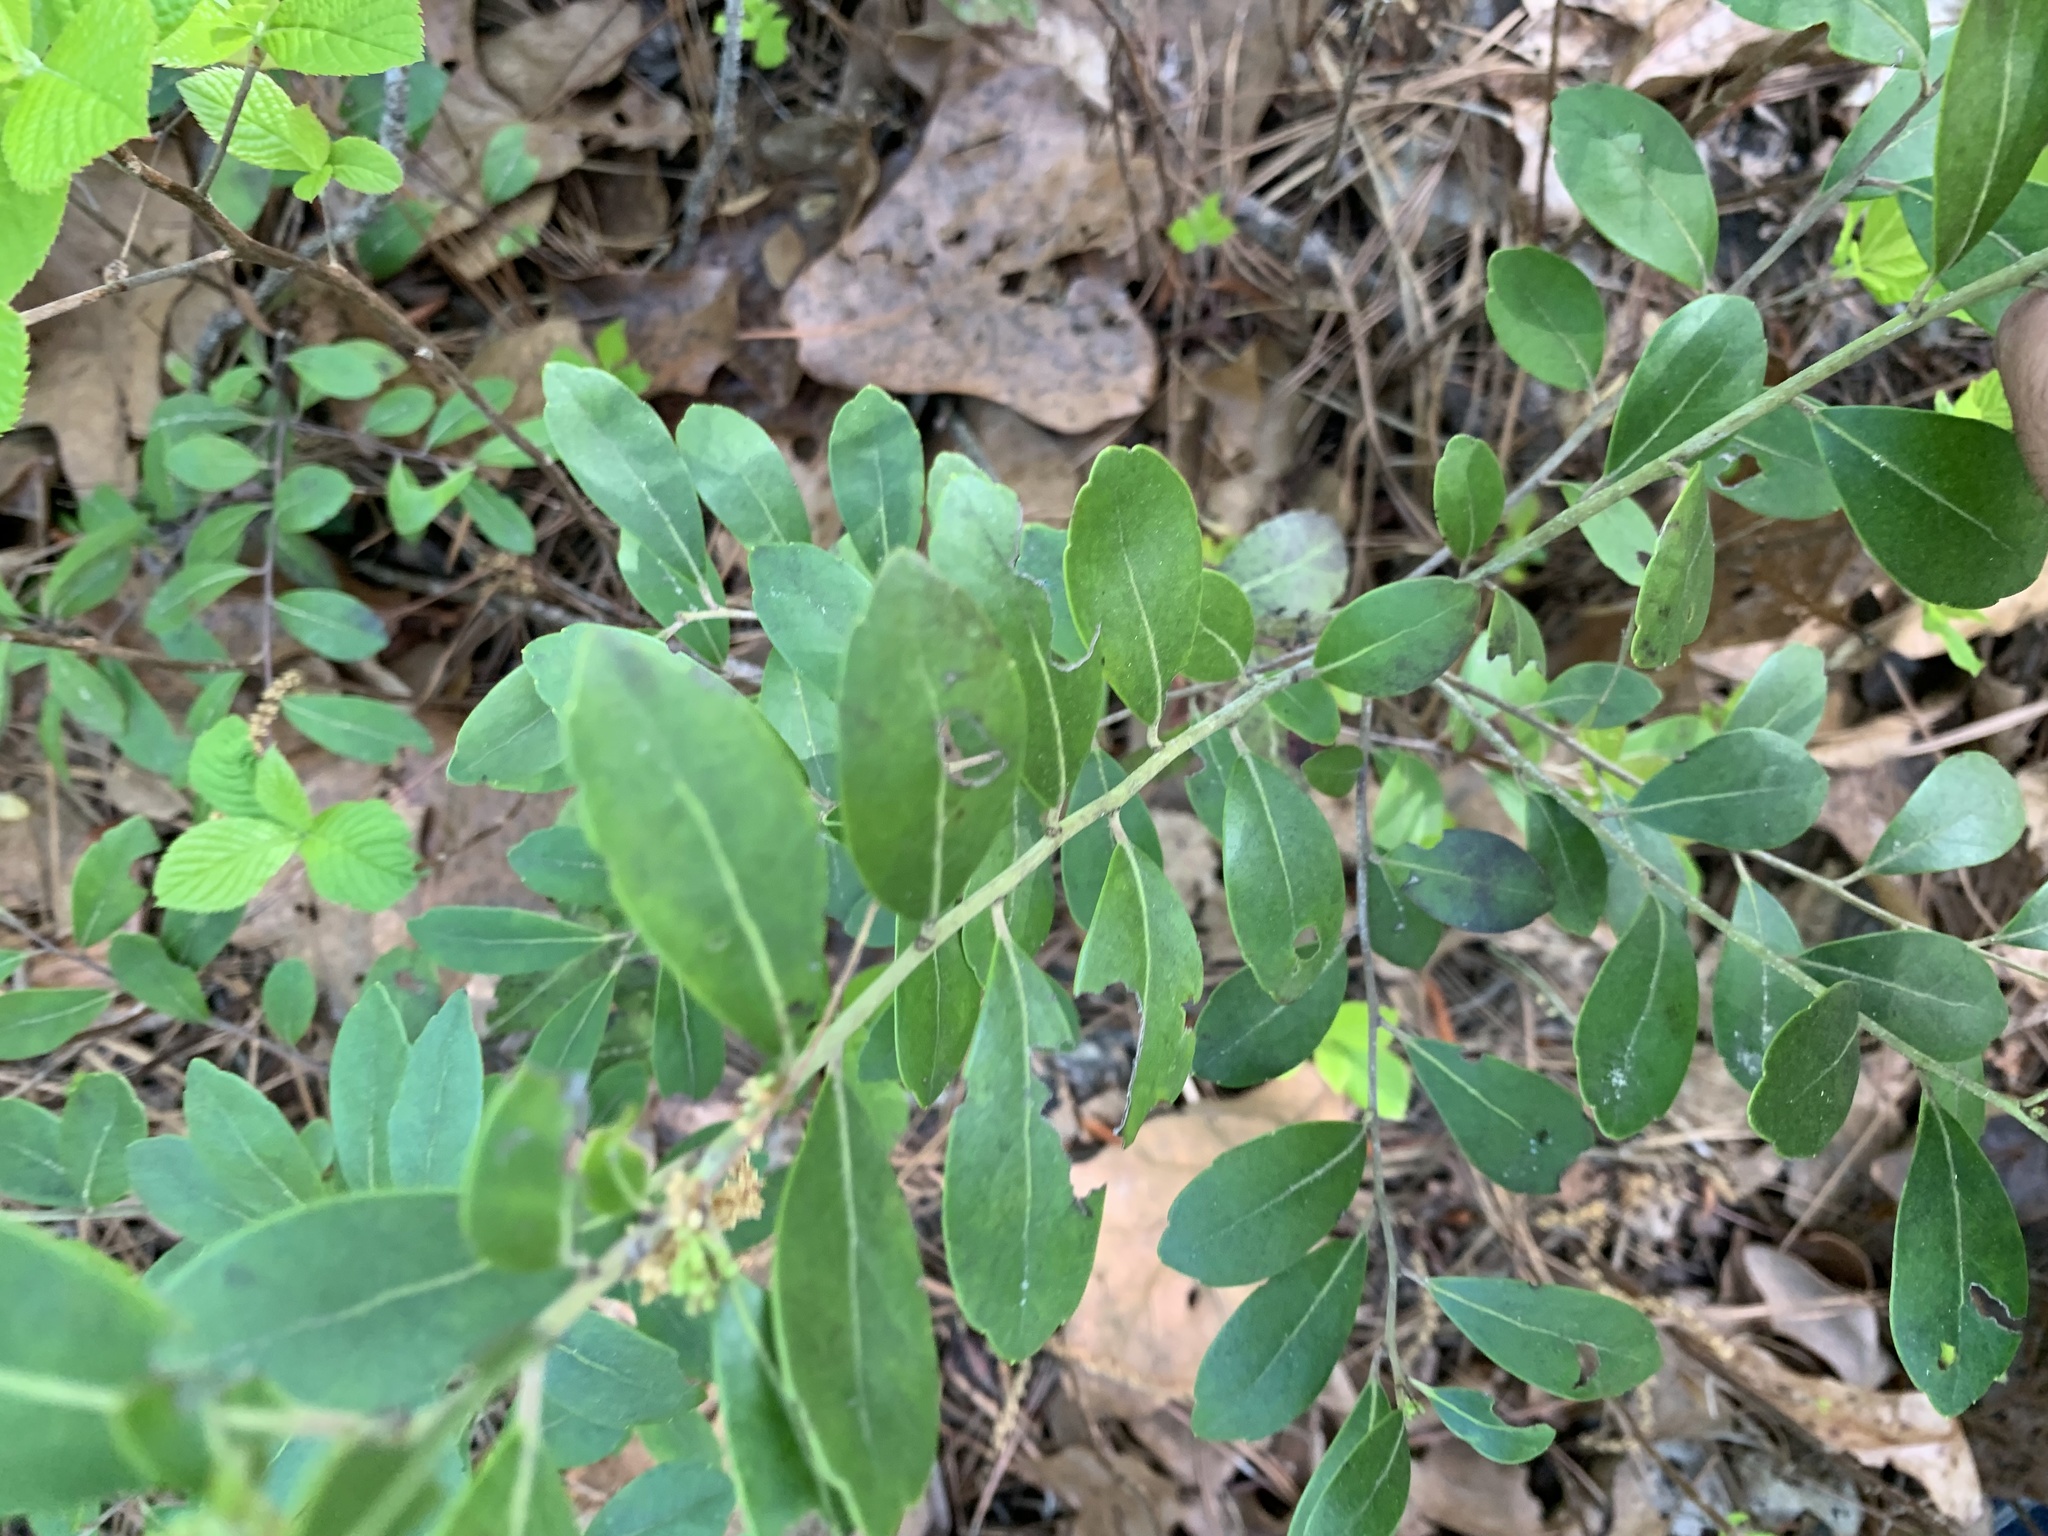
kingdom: Plantae
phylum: Tracheophyta
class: Magnoliopsida
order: Aquifoliales
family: Aquifoliaceae
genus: Ilex
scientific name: Ilex glabra
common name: Bitter gallberry
